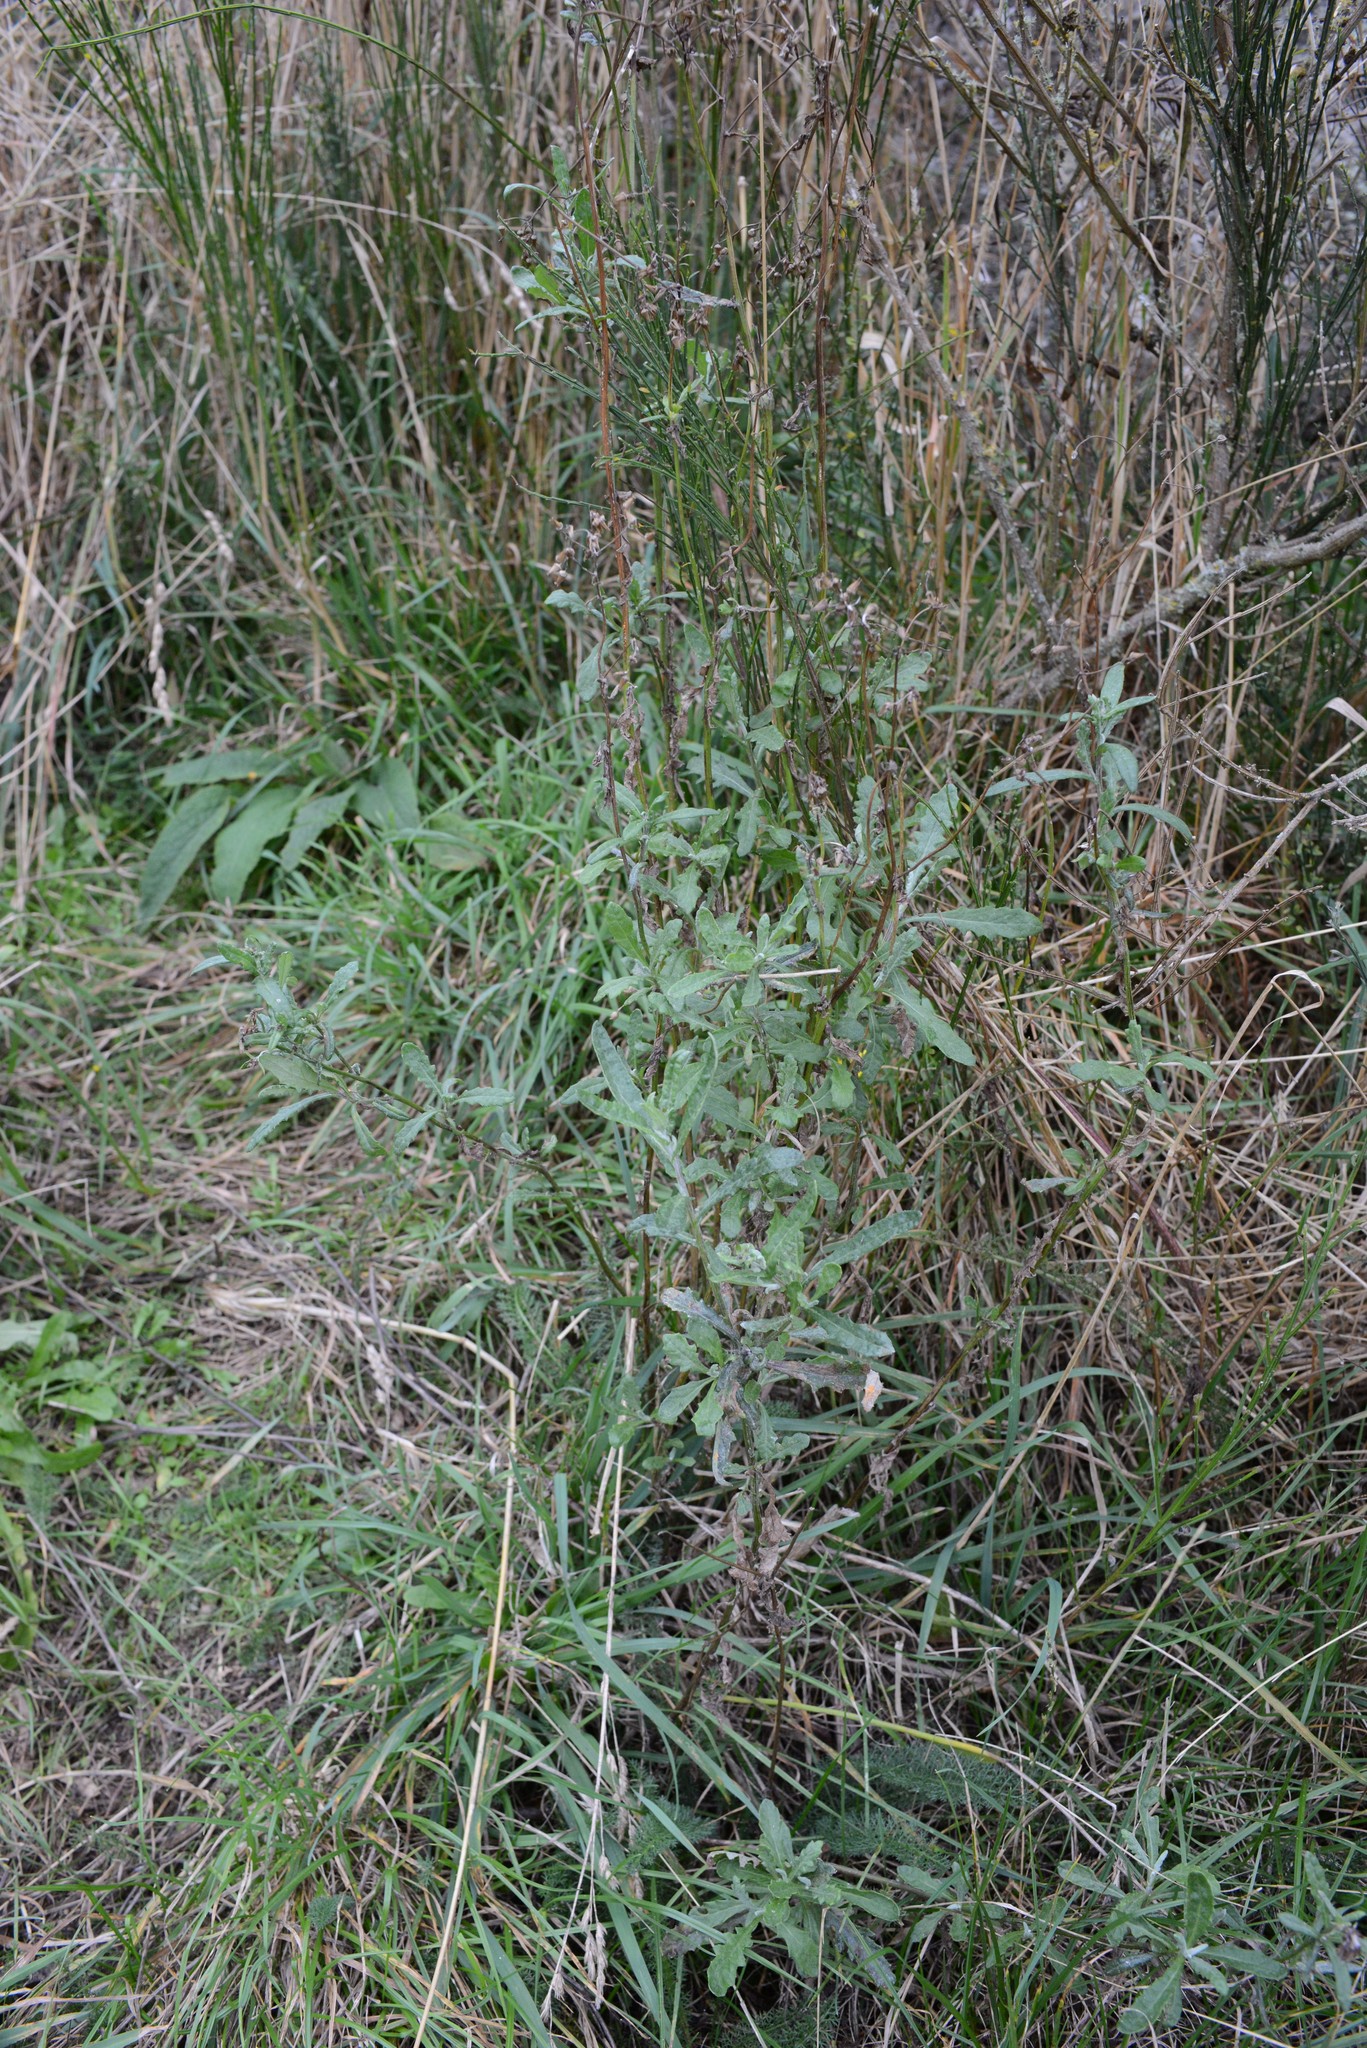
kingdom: Plantae
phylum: Tracheophyta
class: Magnoliopsida
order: Asterales
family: Asteraceae
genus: Senecio
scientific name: Senecio glomeratus
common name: Cutleaf burnweed
